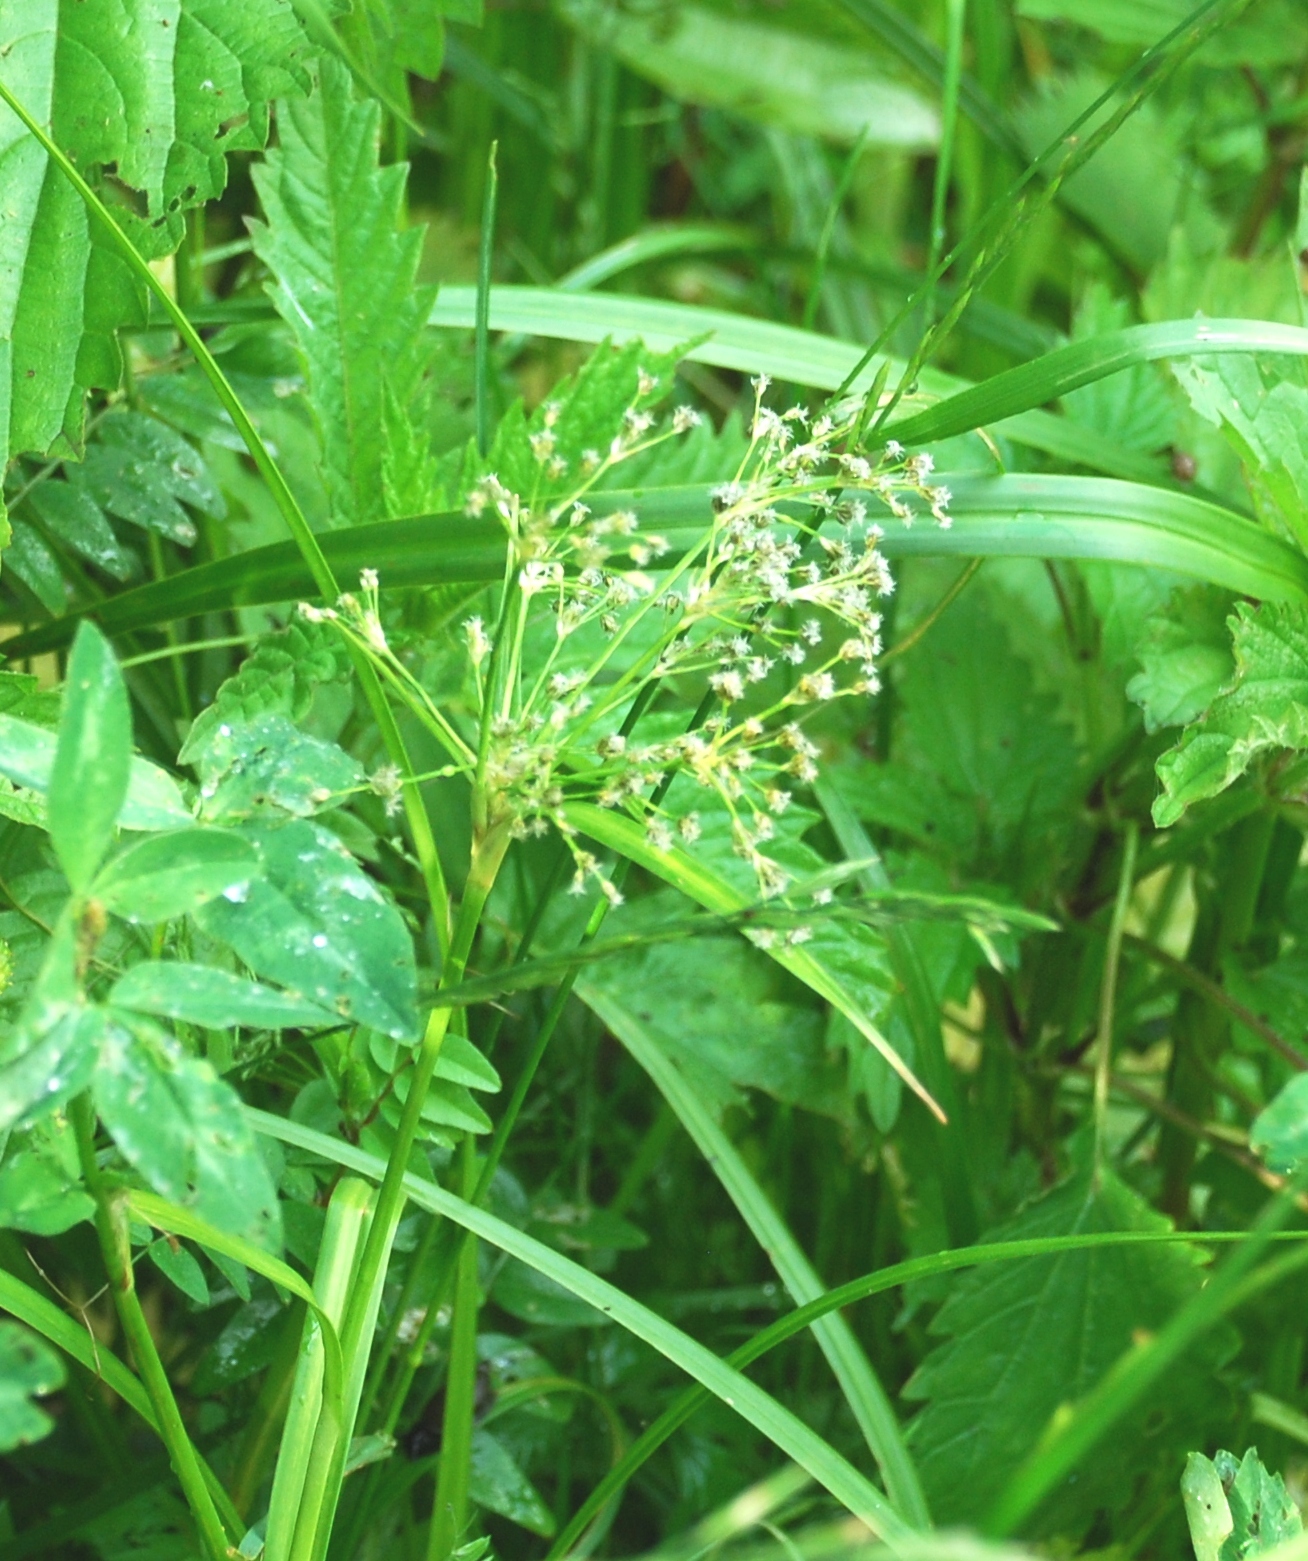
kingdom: Plantae
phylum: Tracheophyta
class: Liliopsida
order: Poales
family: Cyperaceae
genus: Scirpus
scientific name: Scirpus sylvaticus
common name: Wood club-rush
